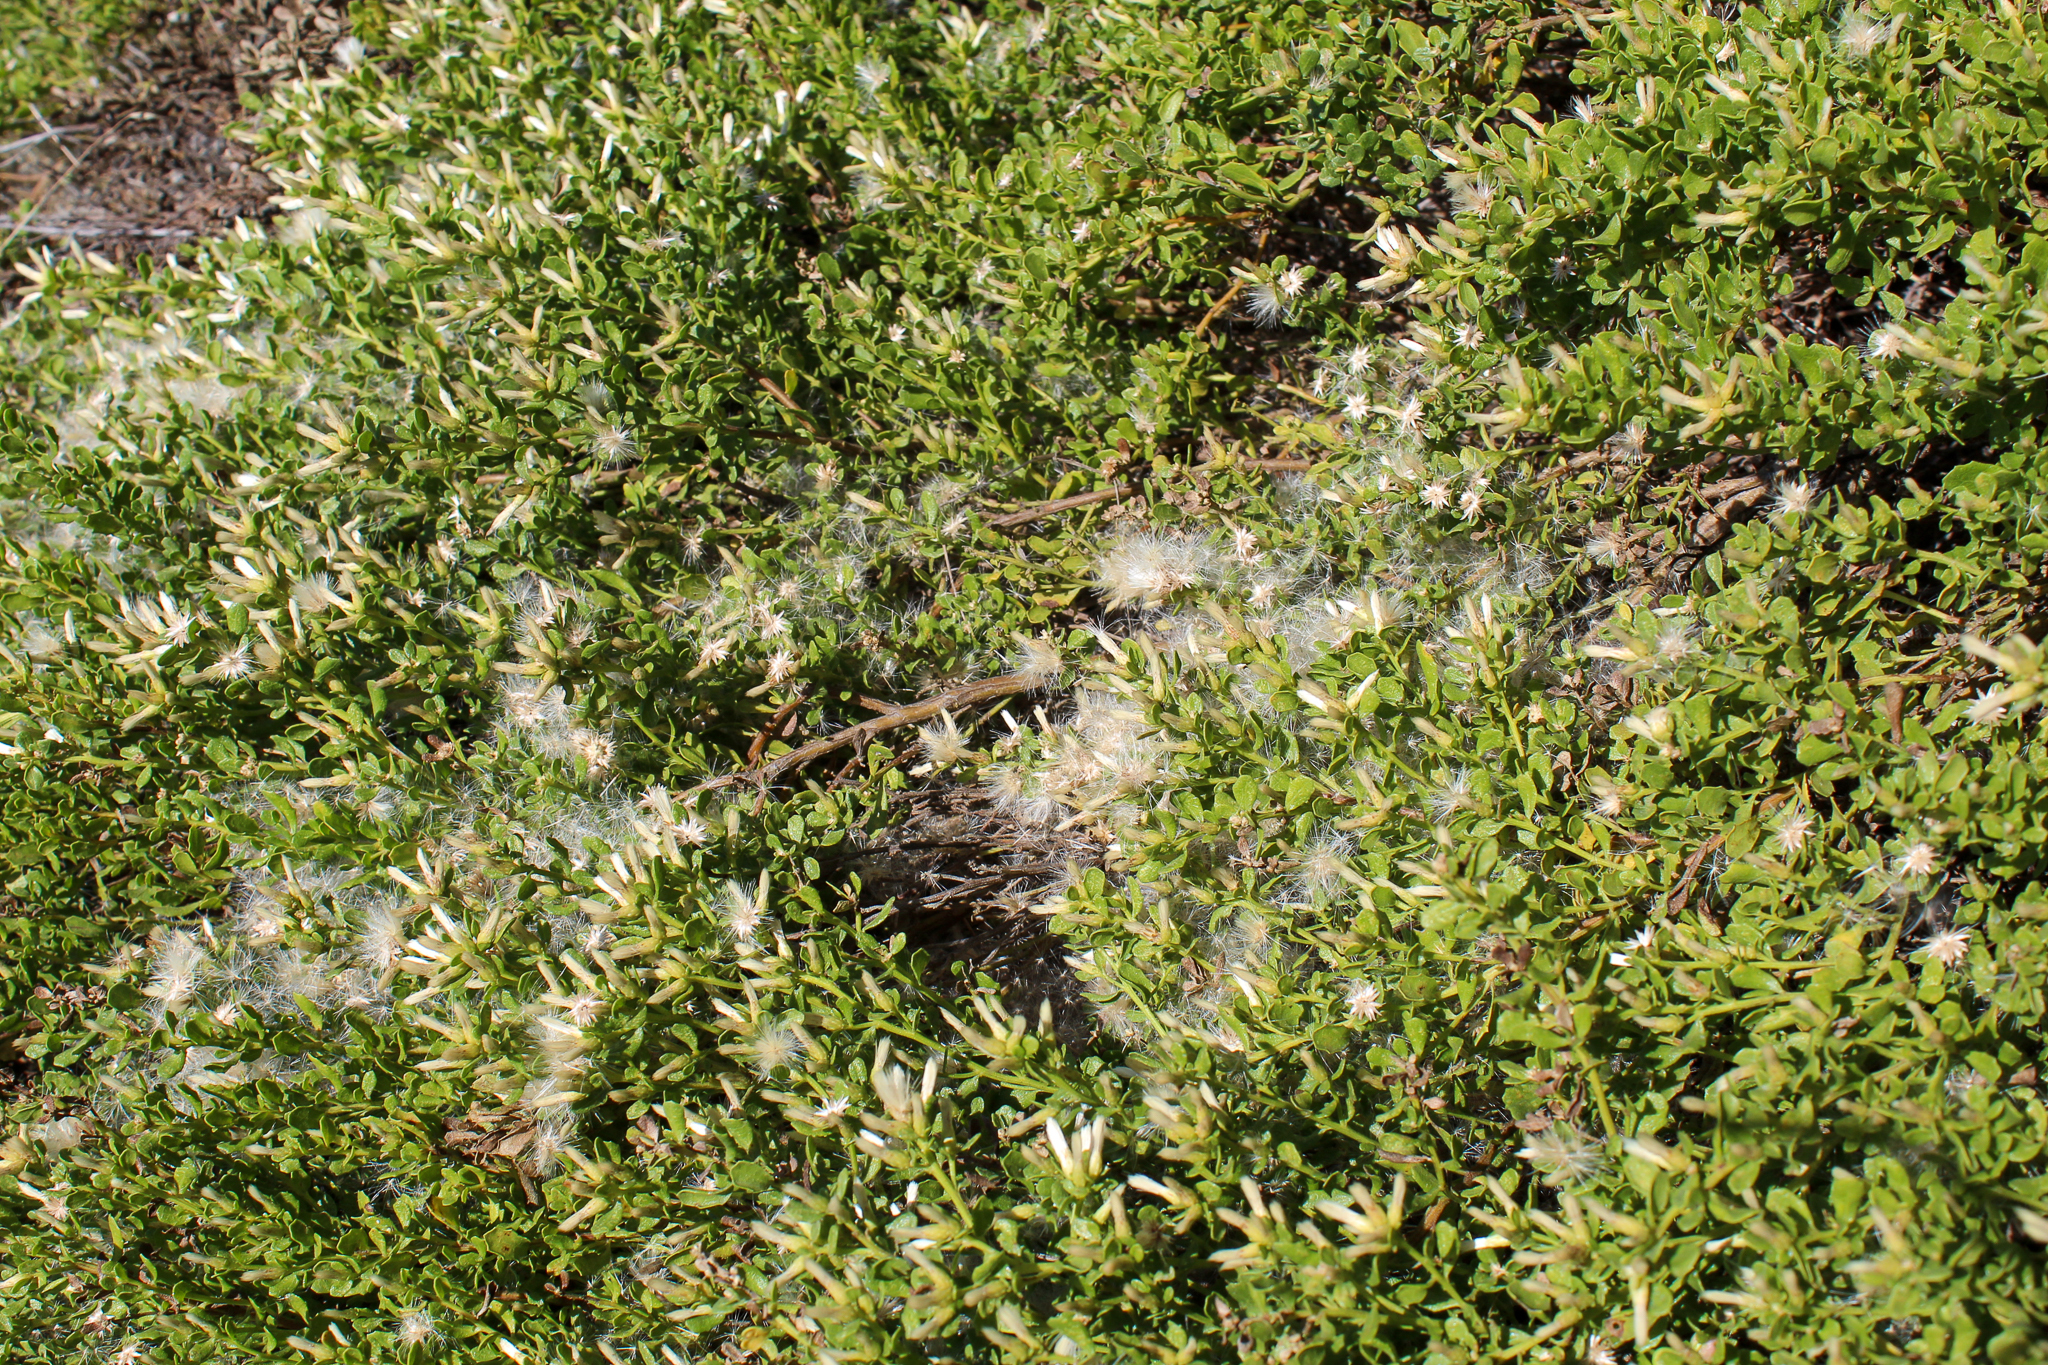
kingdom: Plantae
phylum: Tracheophyta
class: Magnoliopsida
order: Asterales
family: Asteraceae
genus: Baccharis
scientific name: Baccharis pilularis
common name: Coyotebrush
